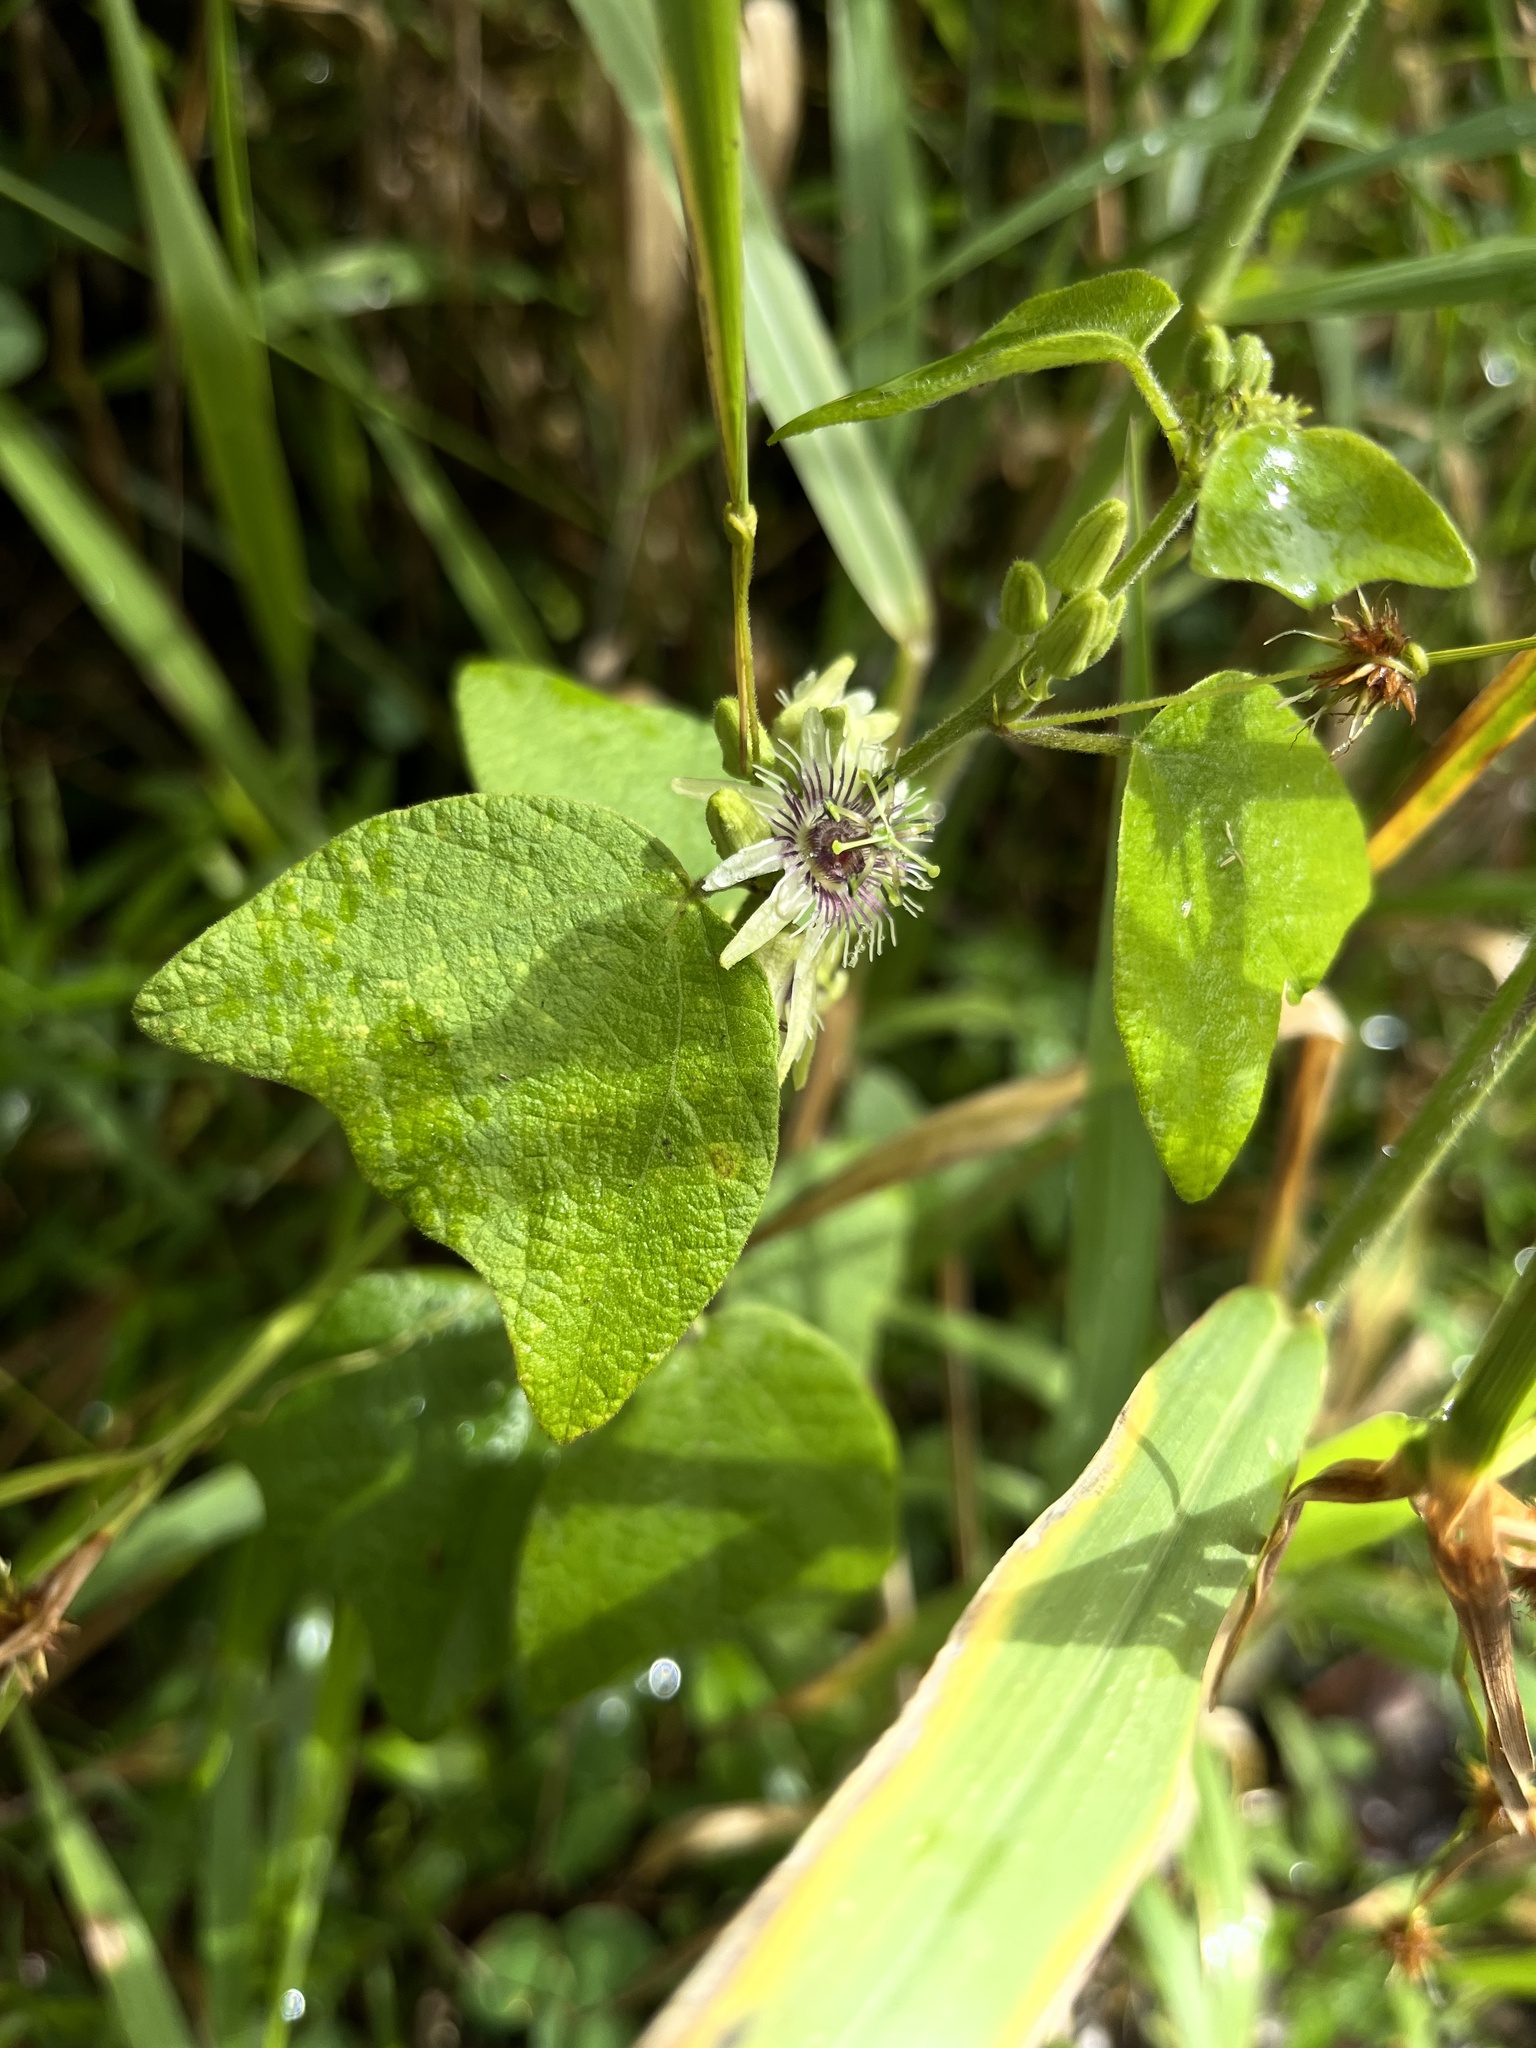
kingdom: Plantae
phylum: Tracheophyta
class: Magnoliopsida
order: Malpighiales
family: Passifloraceae
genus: Passiflora
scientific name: Passiflora sexflora
